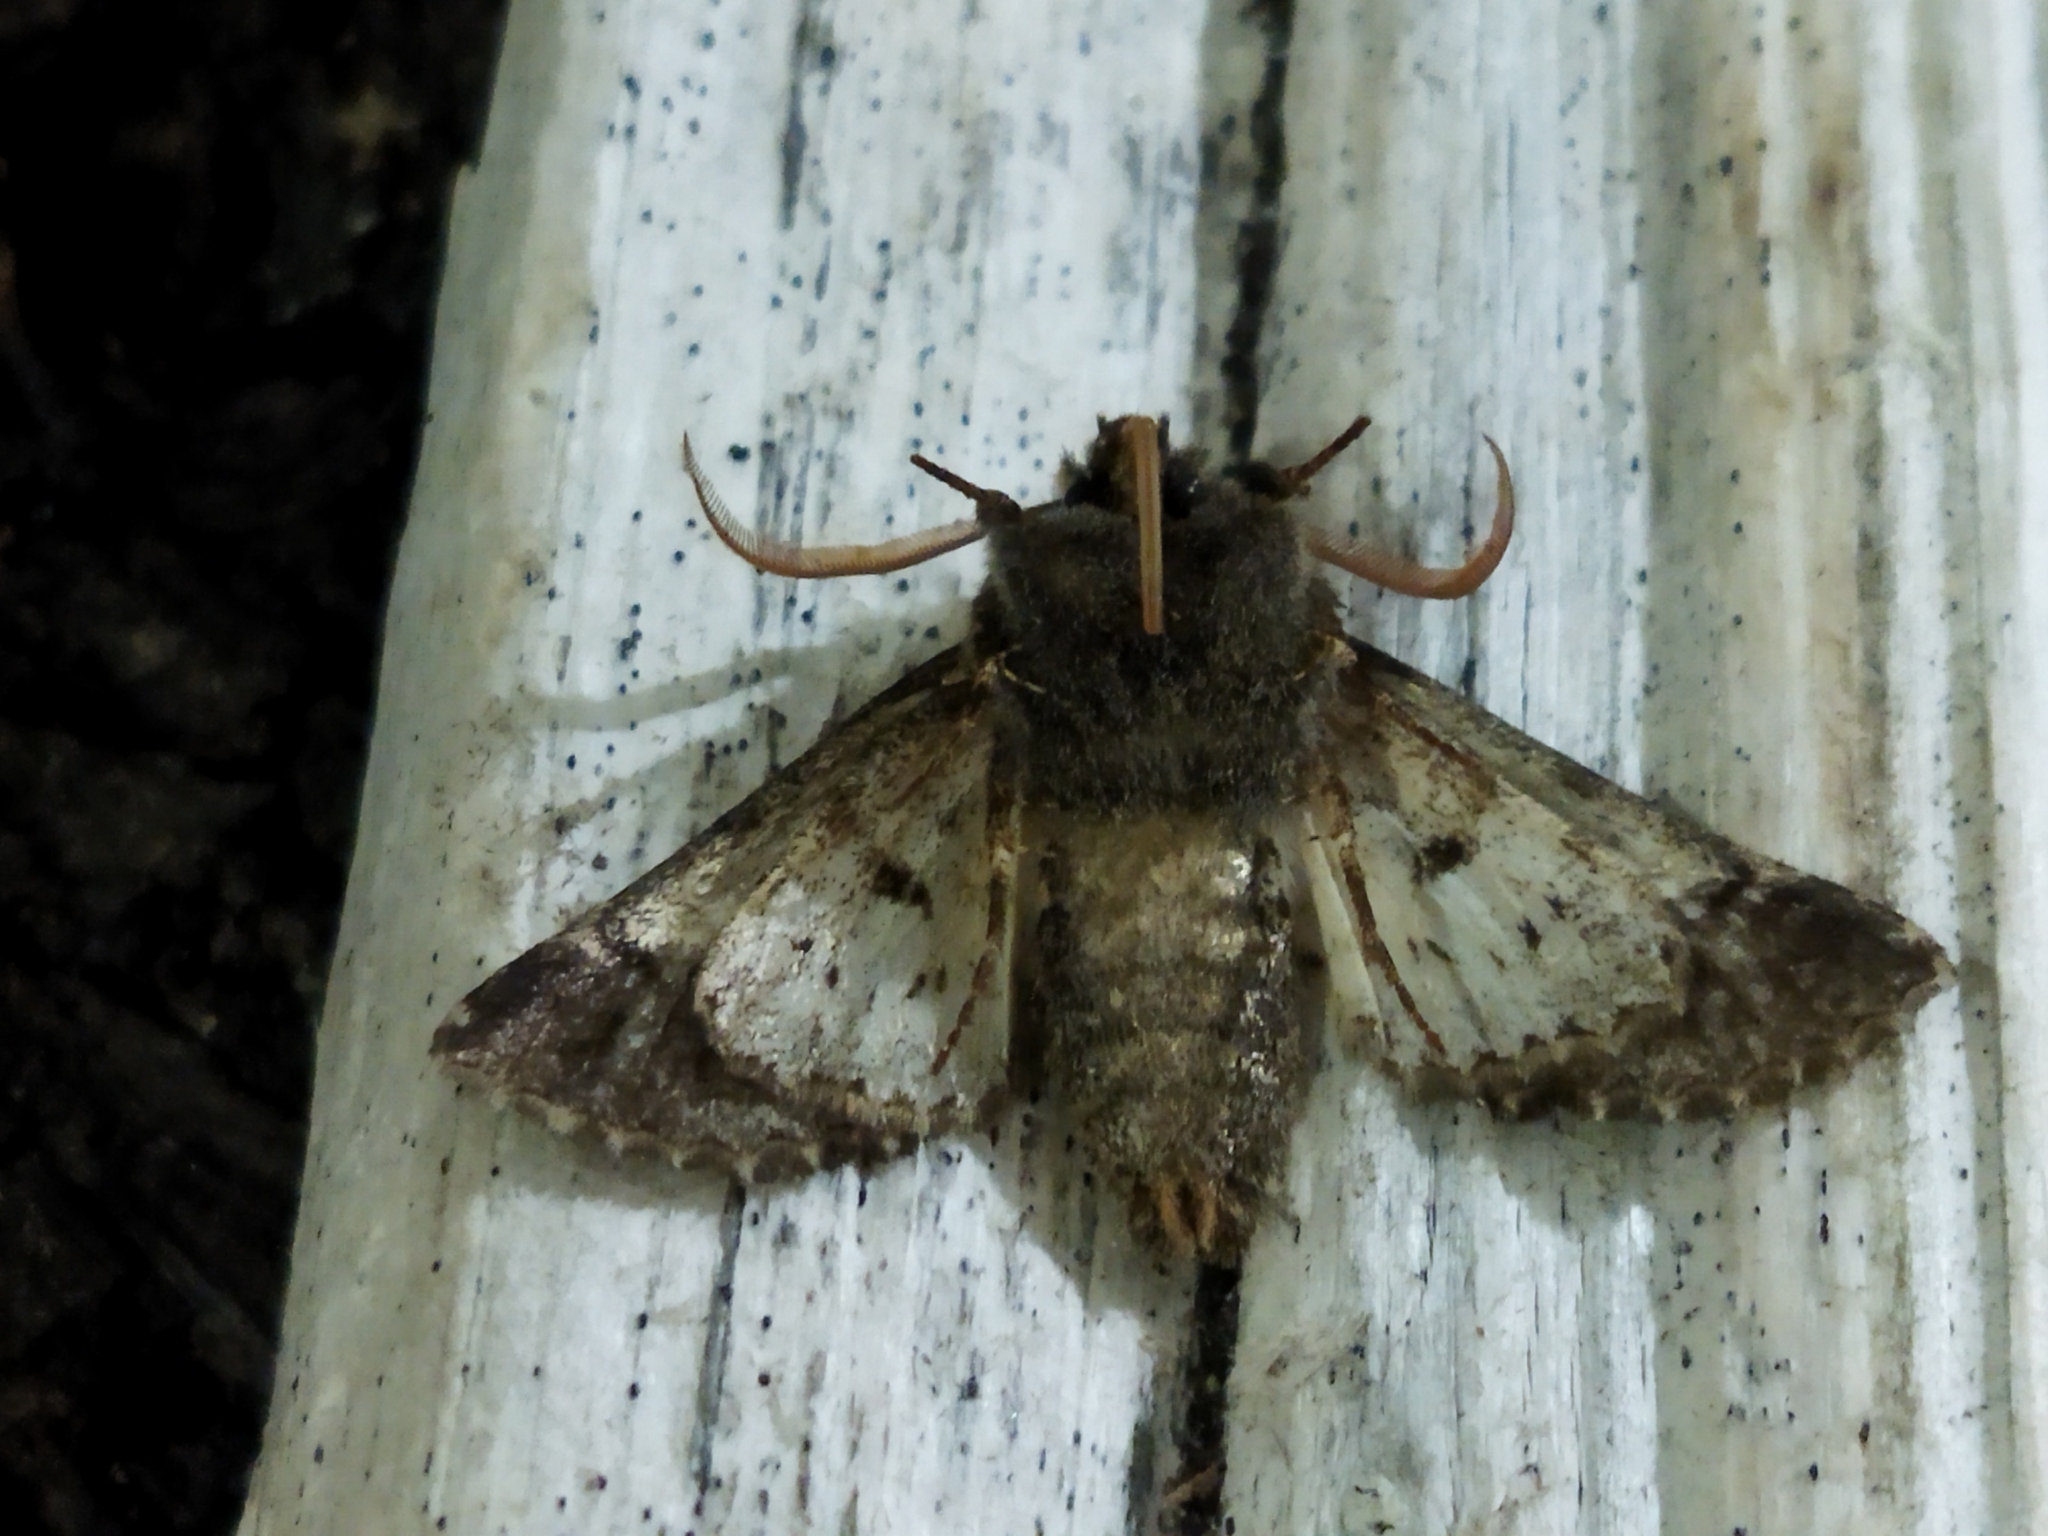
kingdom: Animalia
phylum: Arthropoda
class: Insecta
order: Lepidoptera
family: Noctuidae
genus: Valeria
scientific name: Valeria oleagina
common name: Green-brindled dot
